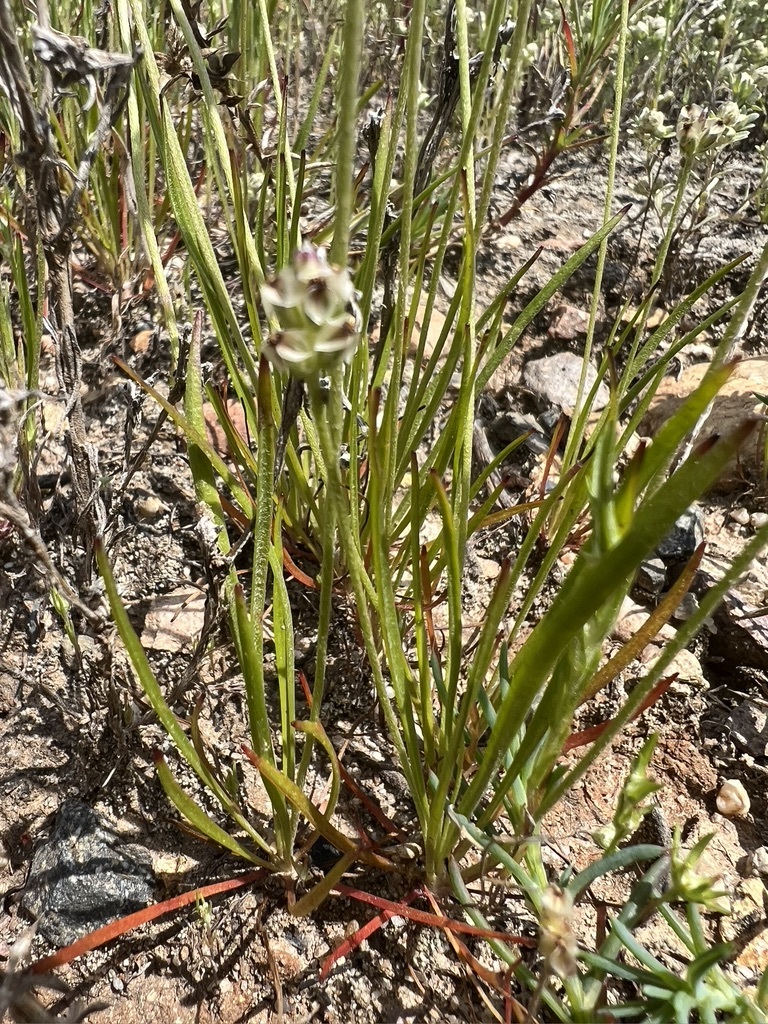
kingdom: Plantae
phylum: Tracheophyta
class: Magnoliopsida
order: Lamiales
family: Plantaginaceae
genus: Plantago
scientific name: Plantago erecta
